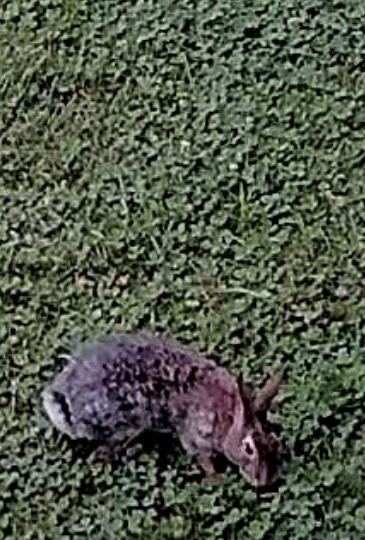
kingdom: Animalia
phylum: Chordata
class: Mammalia
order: Lagomorpha
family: Leporidae
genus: Sylvilagus
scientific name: Sylvilagus floridanus
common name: Eastern cottontail
